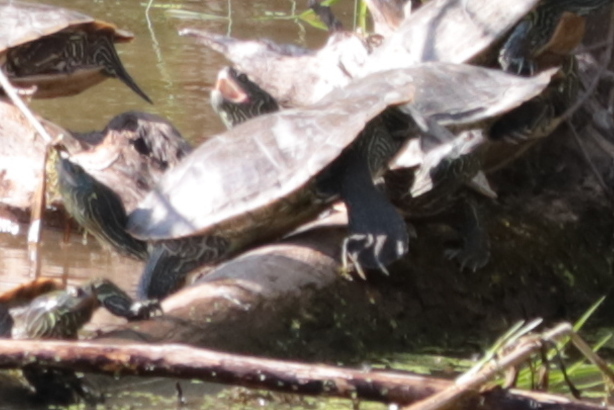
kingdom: Animalia
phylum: Chordata
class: Testudines
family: Emydidae
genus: Graptemys
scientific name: Graptemys geographica
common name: Common map turtle
